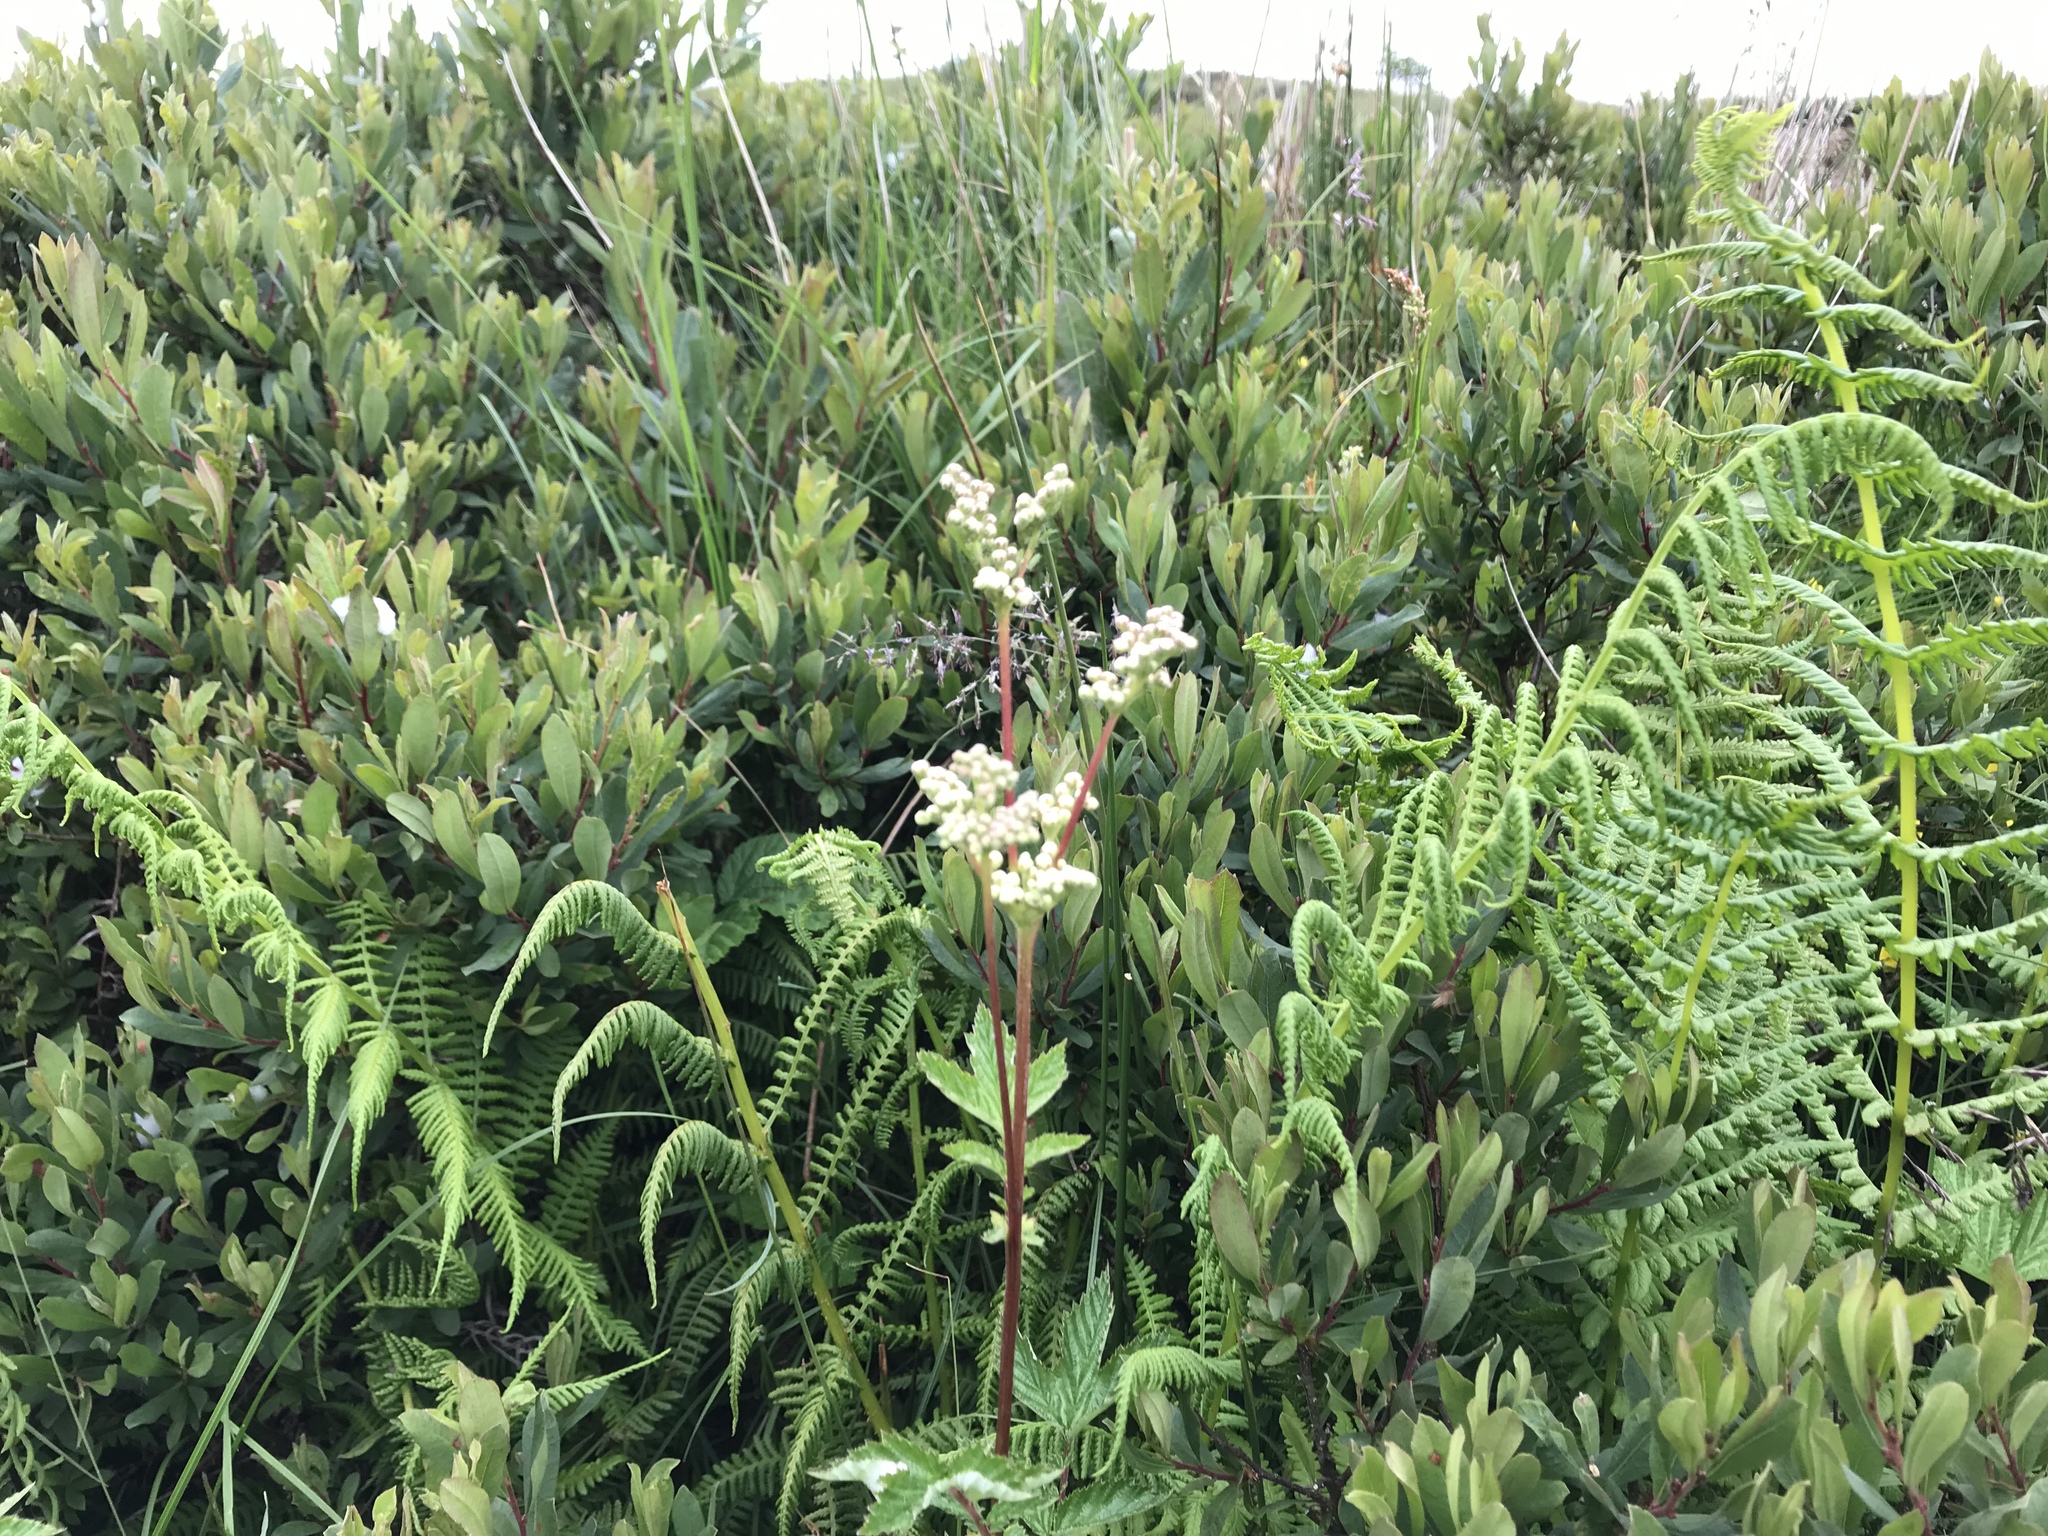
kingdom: Plantae
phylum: Tracheophyta
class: Magnoliopsida
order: Rosales
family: Rosaceae
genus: Filipendula
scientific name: Filipendula ulmaria
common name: Meadowsweet
